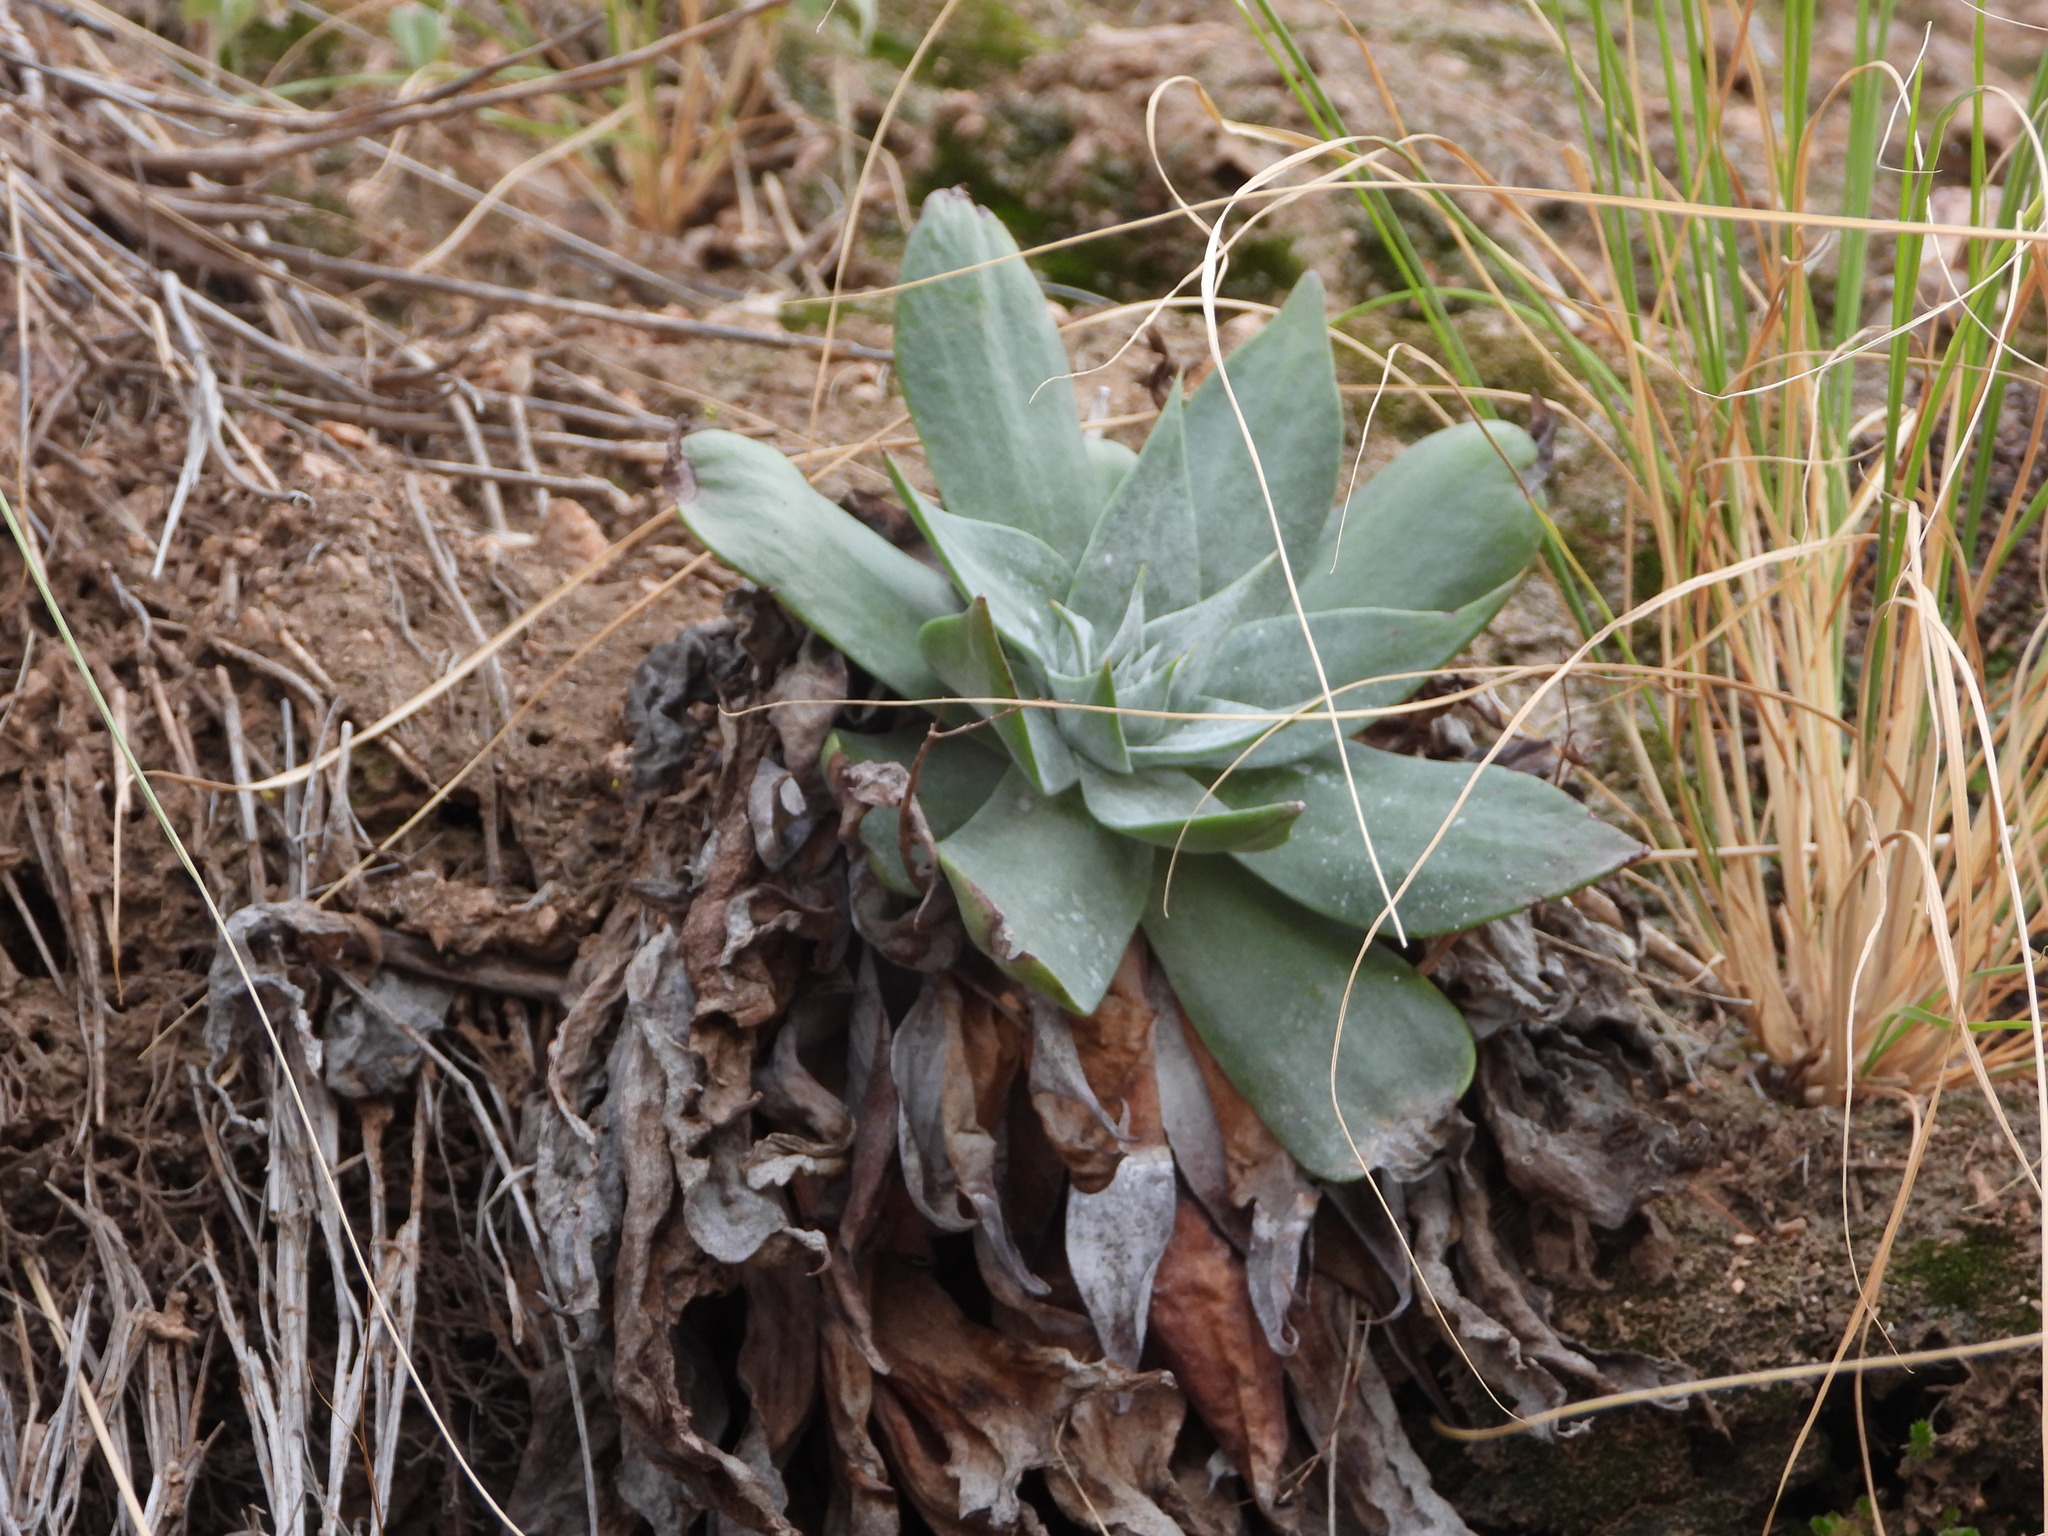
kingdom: Plantae
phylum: Tracheophyta
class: Magnoliopsida
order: Saxifragales
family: Crassulaceae
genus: Dudleya
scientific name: Dudleya arizonica
